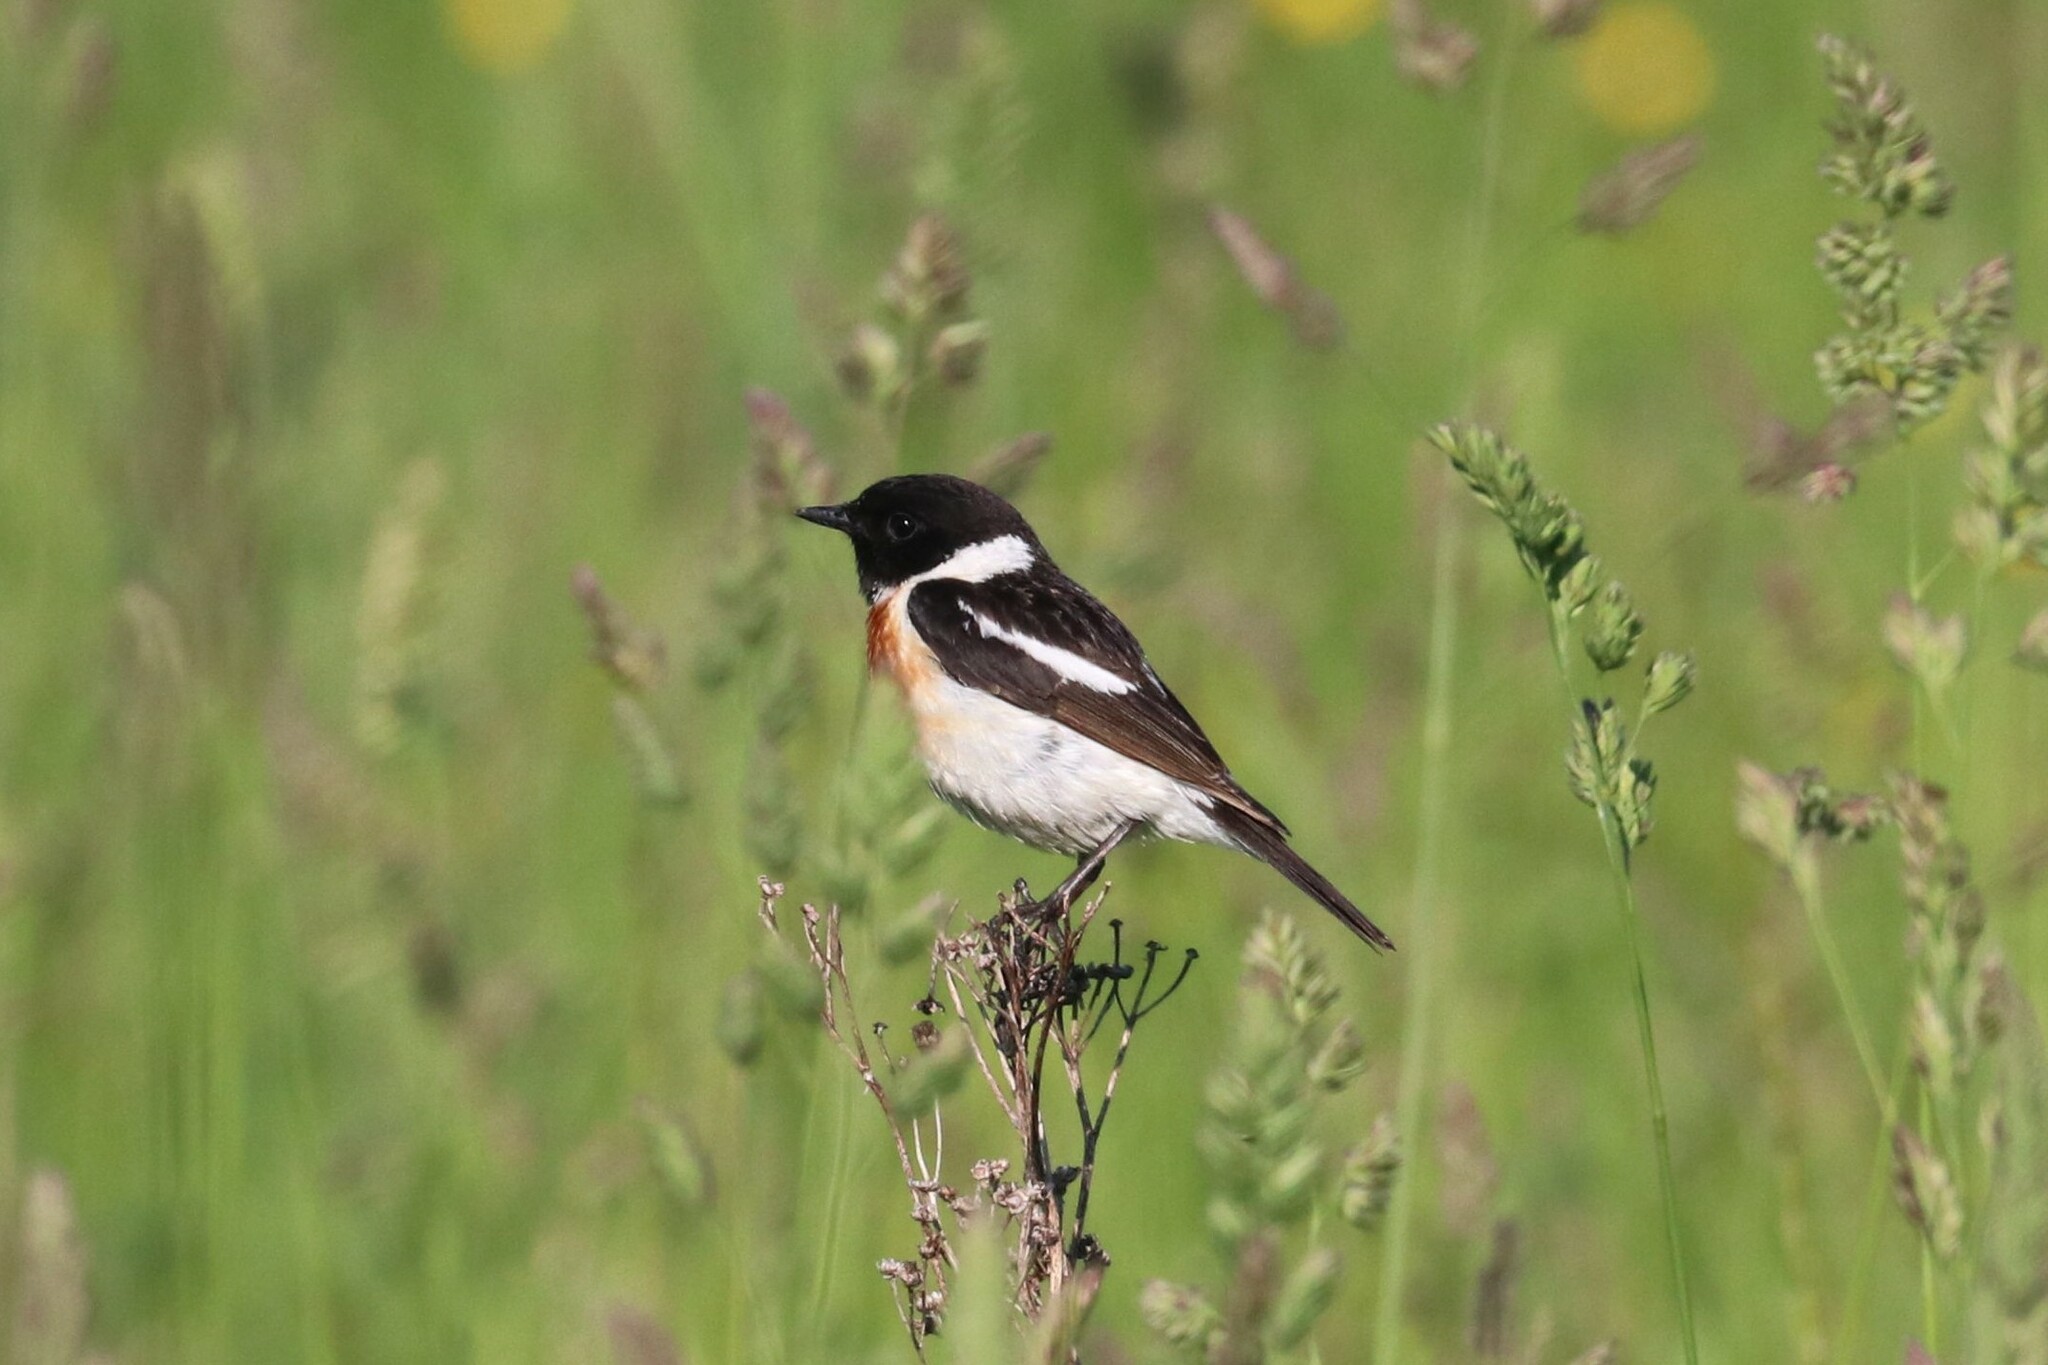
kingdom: Animalia
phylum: Chordata
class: Aves
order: Passeriformes
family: Muscicapidae
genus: Saxicola
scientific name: Saxicola maurus
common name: Siberian stonechat
